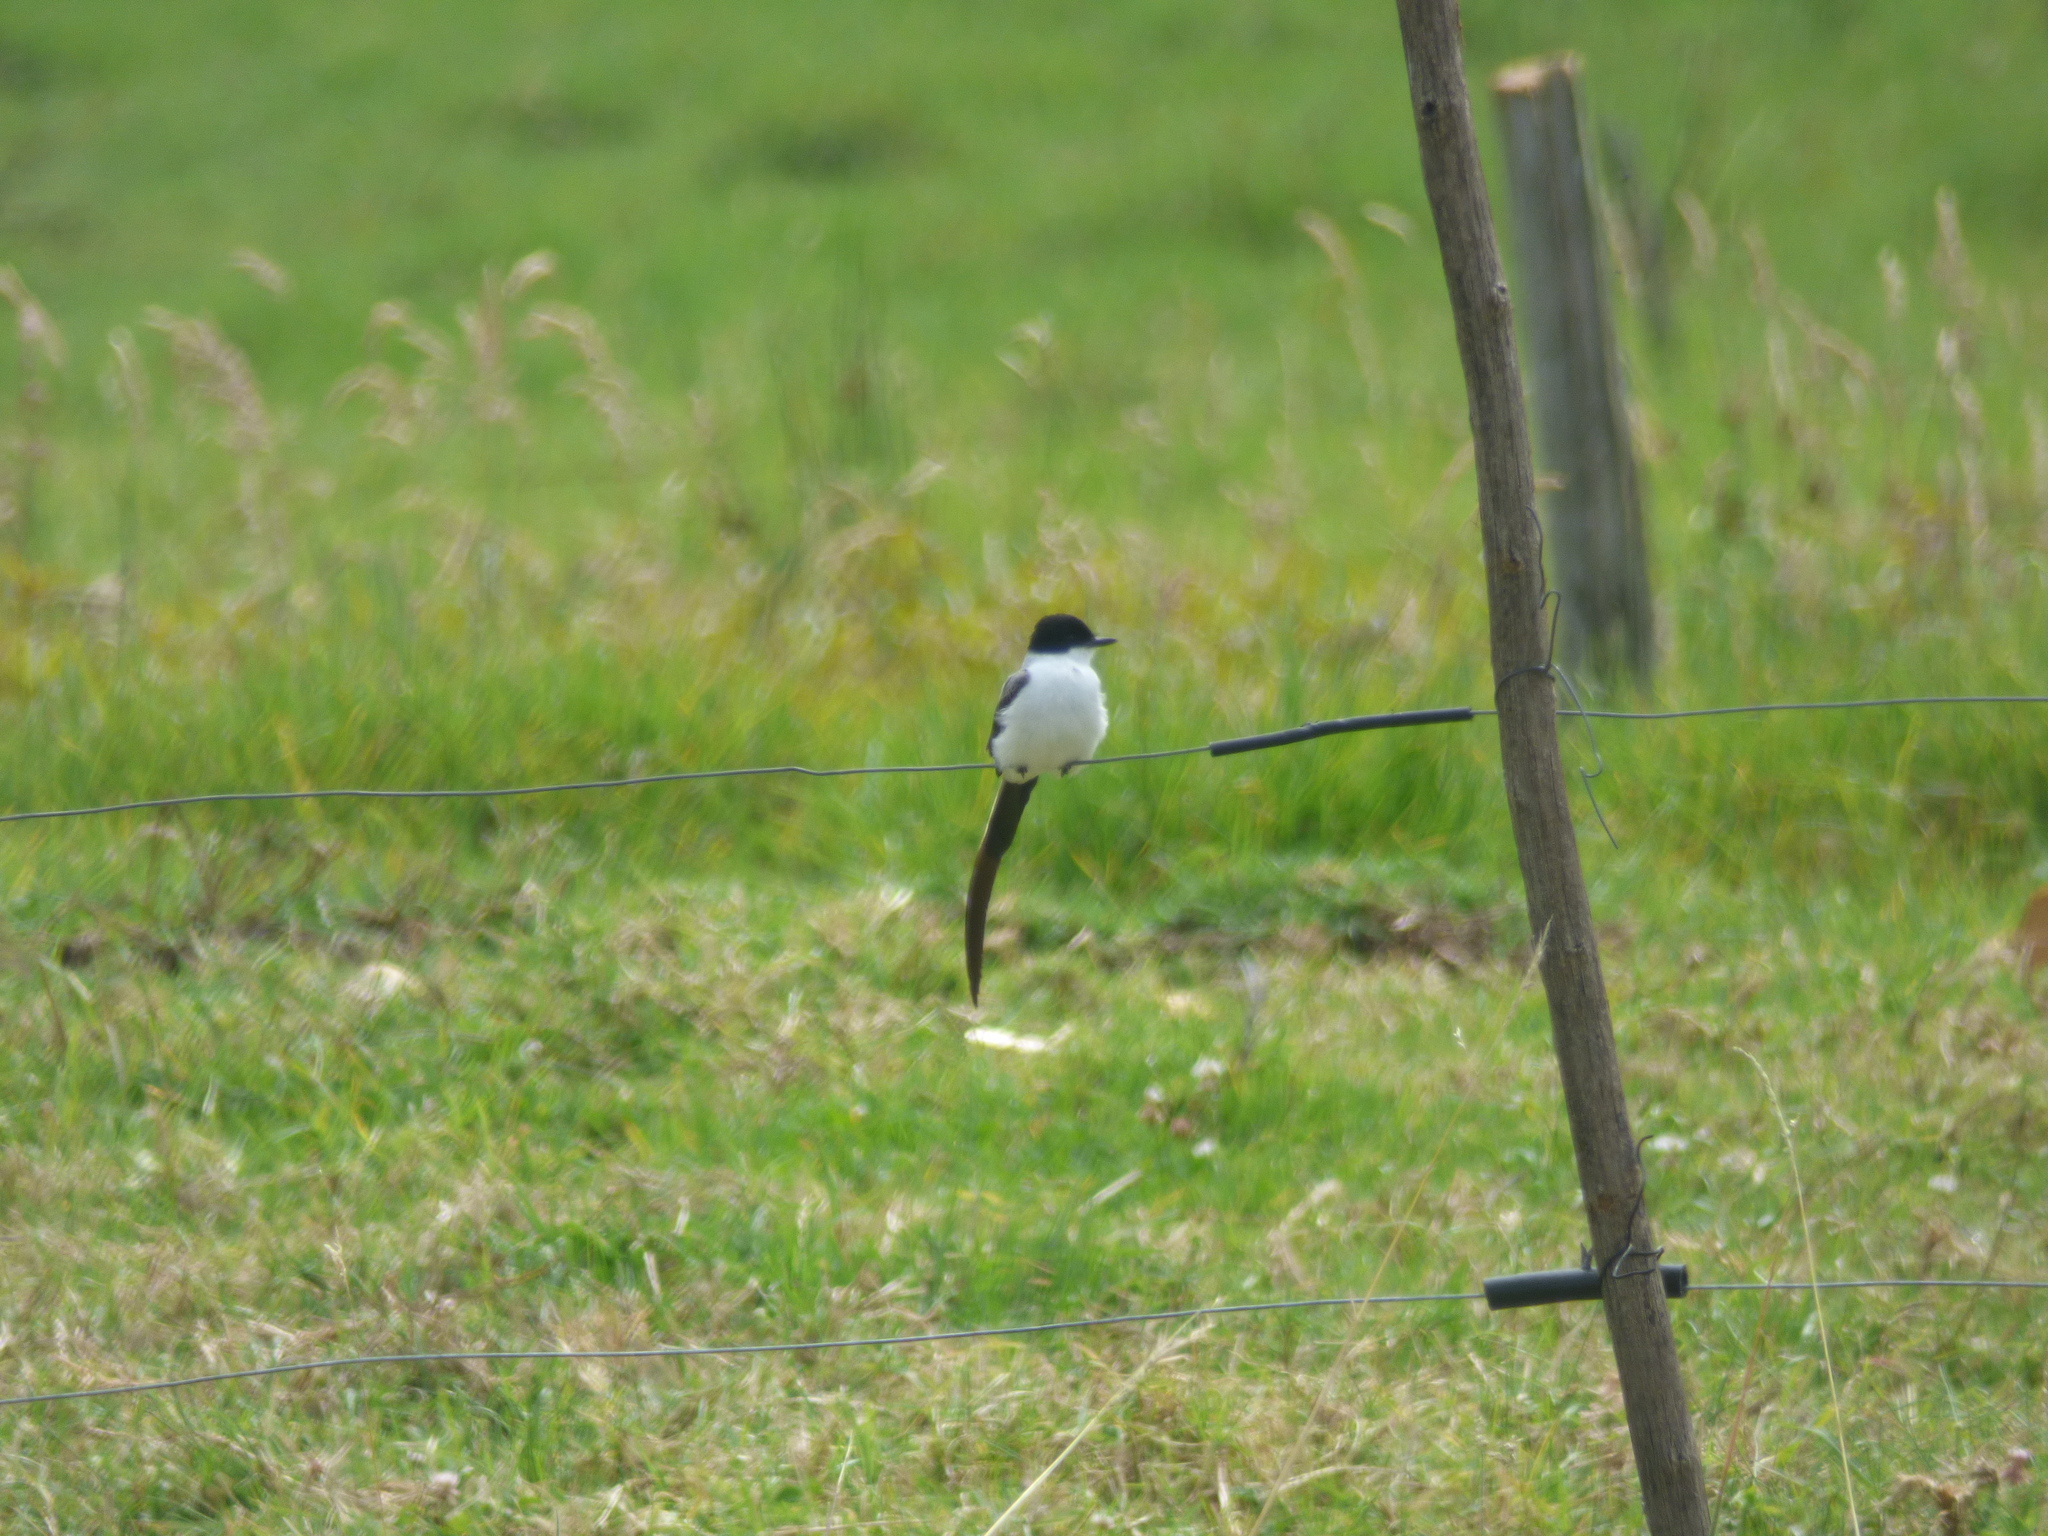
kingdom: Animalia
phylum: Chordata
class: Aves
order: Passeriformes
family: Tyrannidae
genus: Tyrannus
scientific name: Tyrannus savana
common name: Fork-tailed flycatcher
